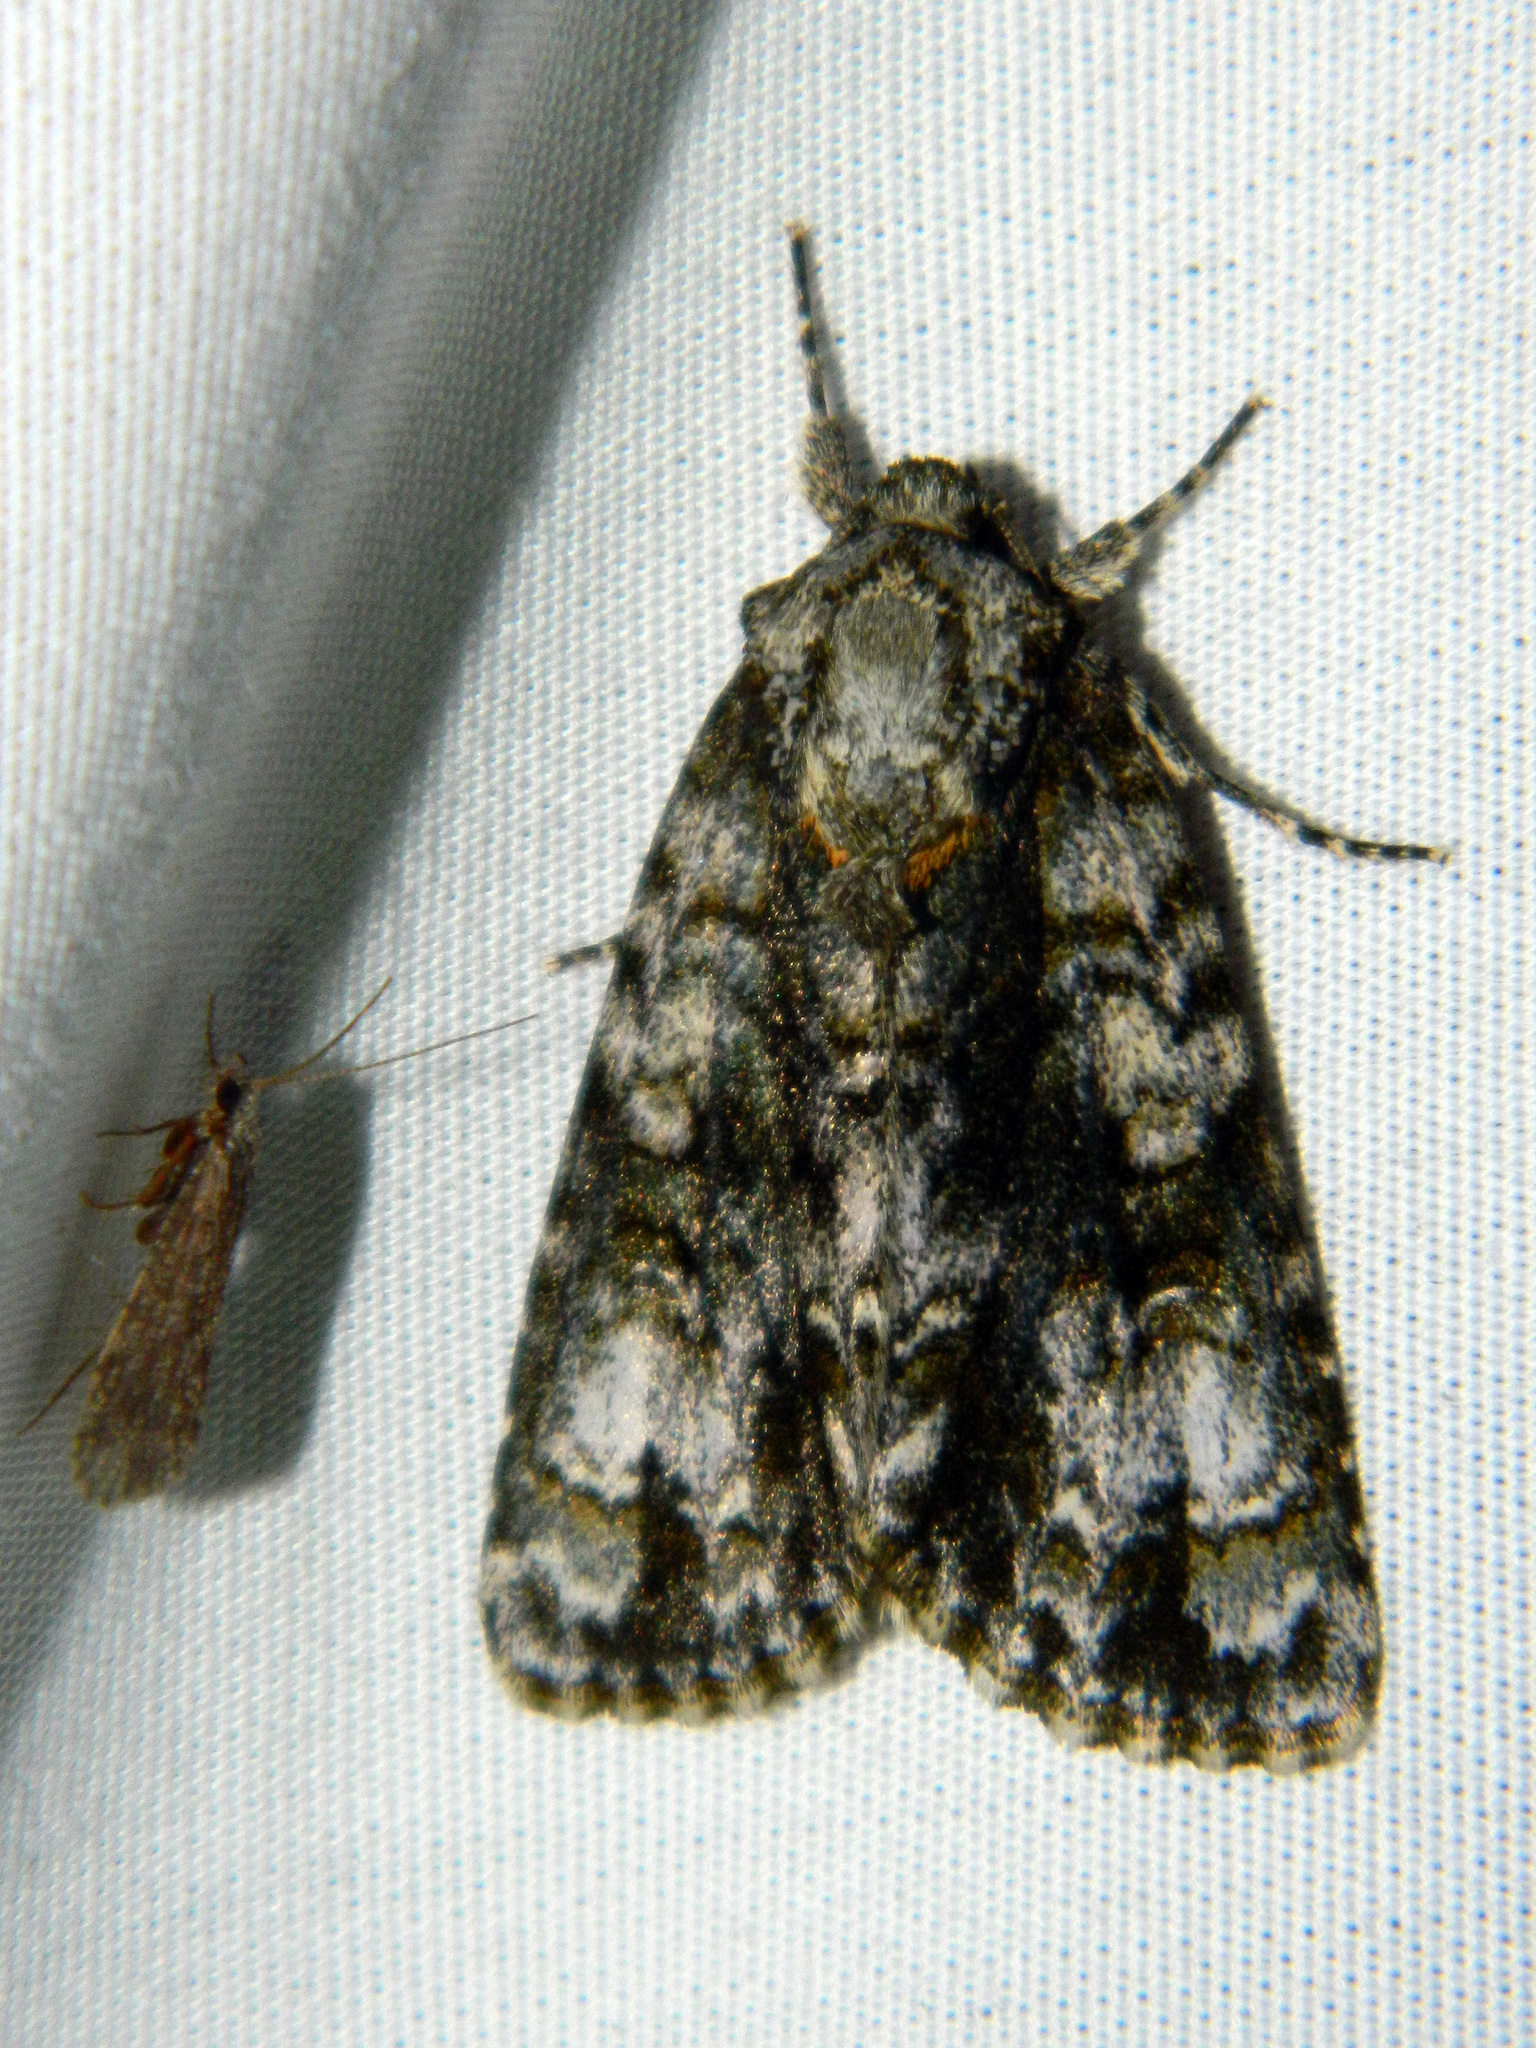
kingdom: Animalia
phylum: Arthropoda
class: Insecta
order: Lepidoptera
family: Noctuidae
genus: Acronicta
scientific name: Acronicta superans
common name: Splendid dagger
